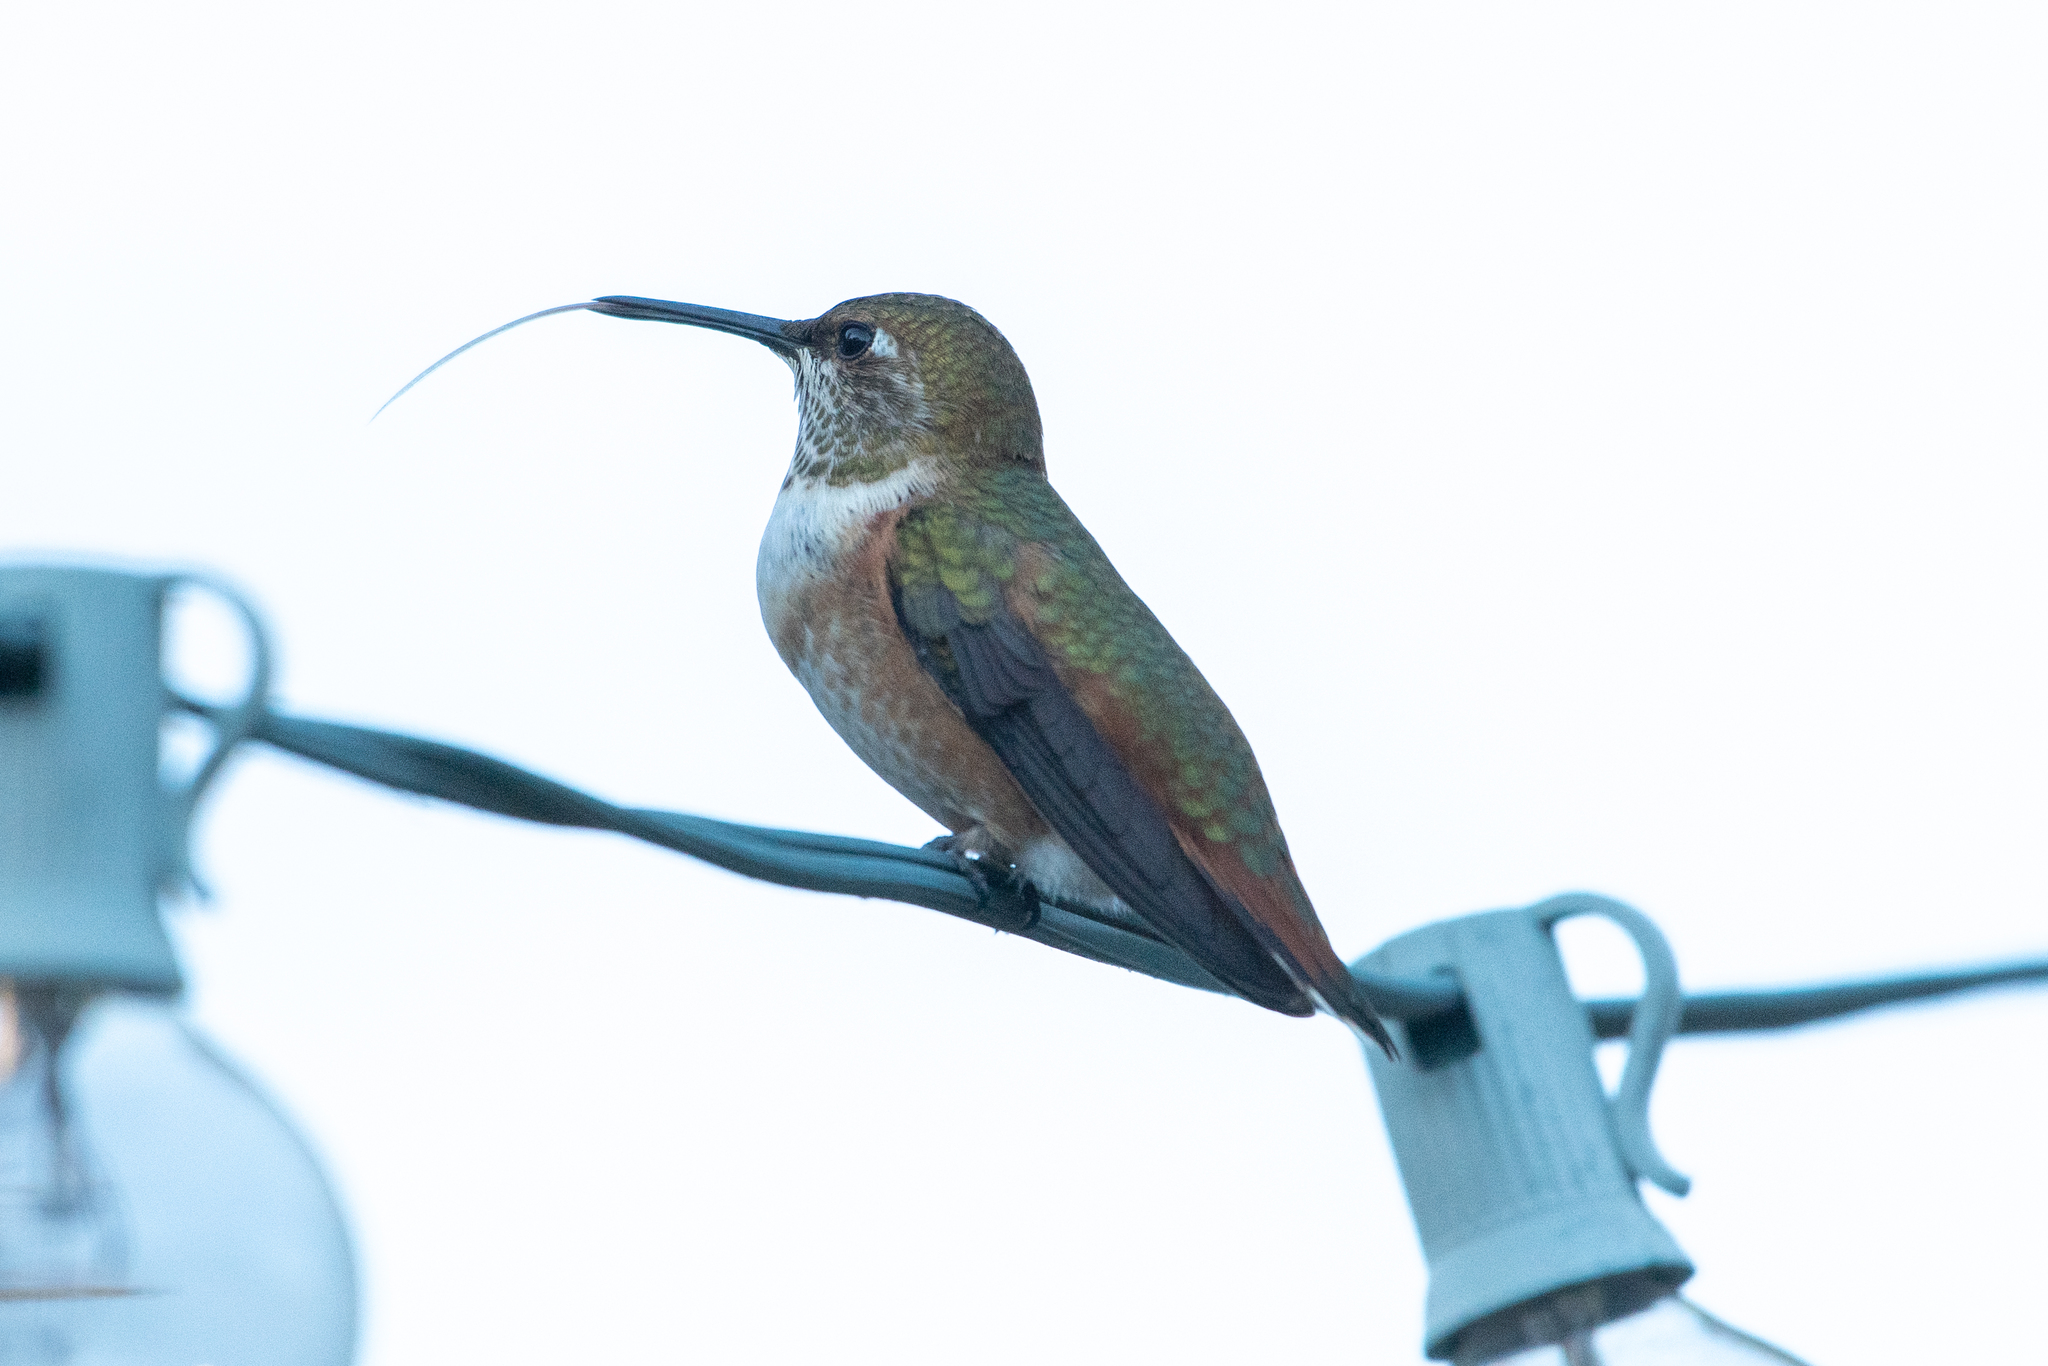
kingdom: Animalia
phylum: Chordata
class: Aves
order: Apodiformes
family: Trochilidae
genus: Selasphorus
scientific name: Selasphorus
